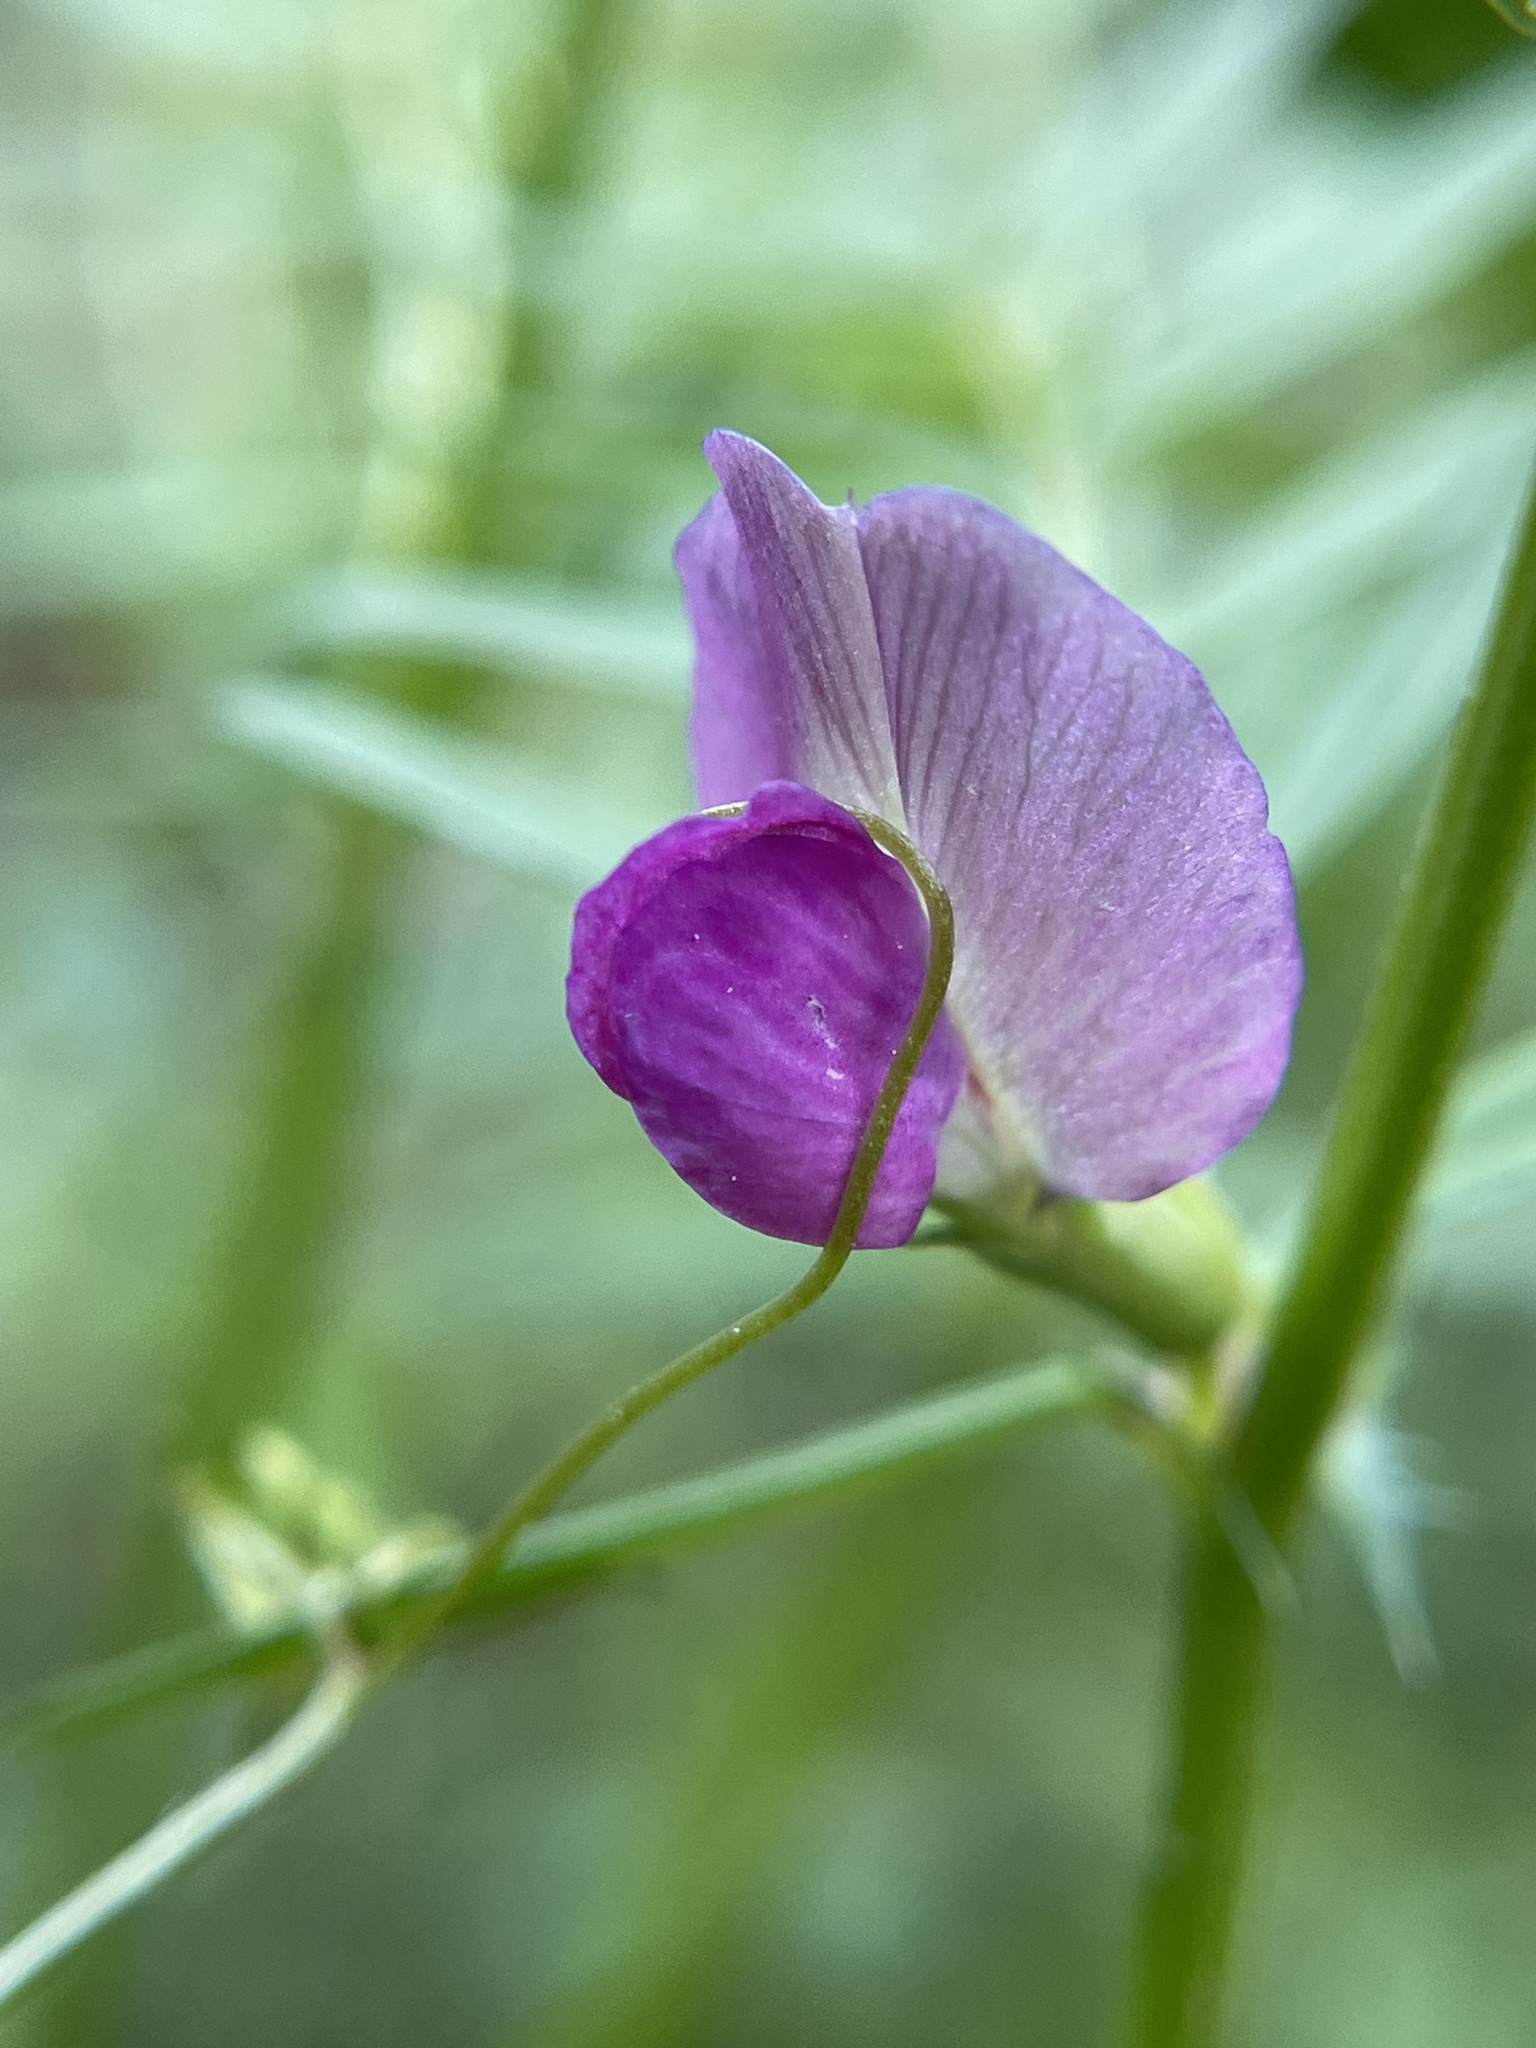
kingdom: Plantae
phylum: Tracheophyta
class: Magnoliopsida
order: Fabales
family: Fabaceae
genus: Vicia
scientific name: Vicia sativa
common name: Garden vetch
